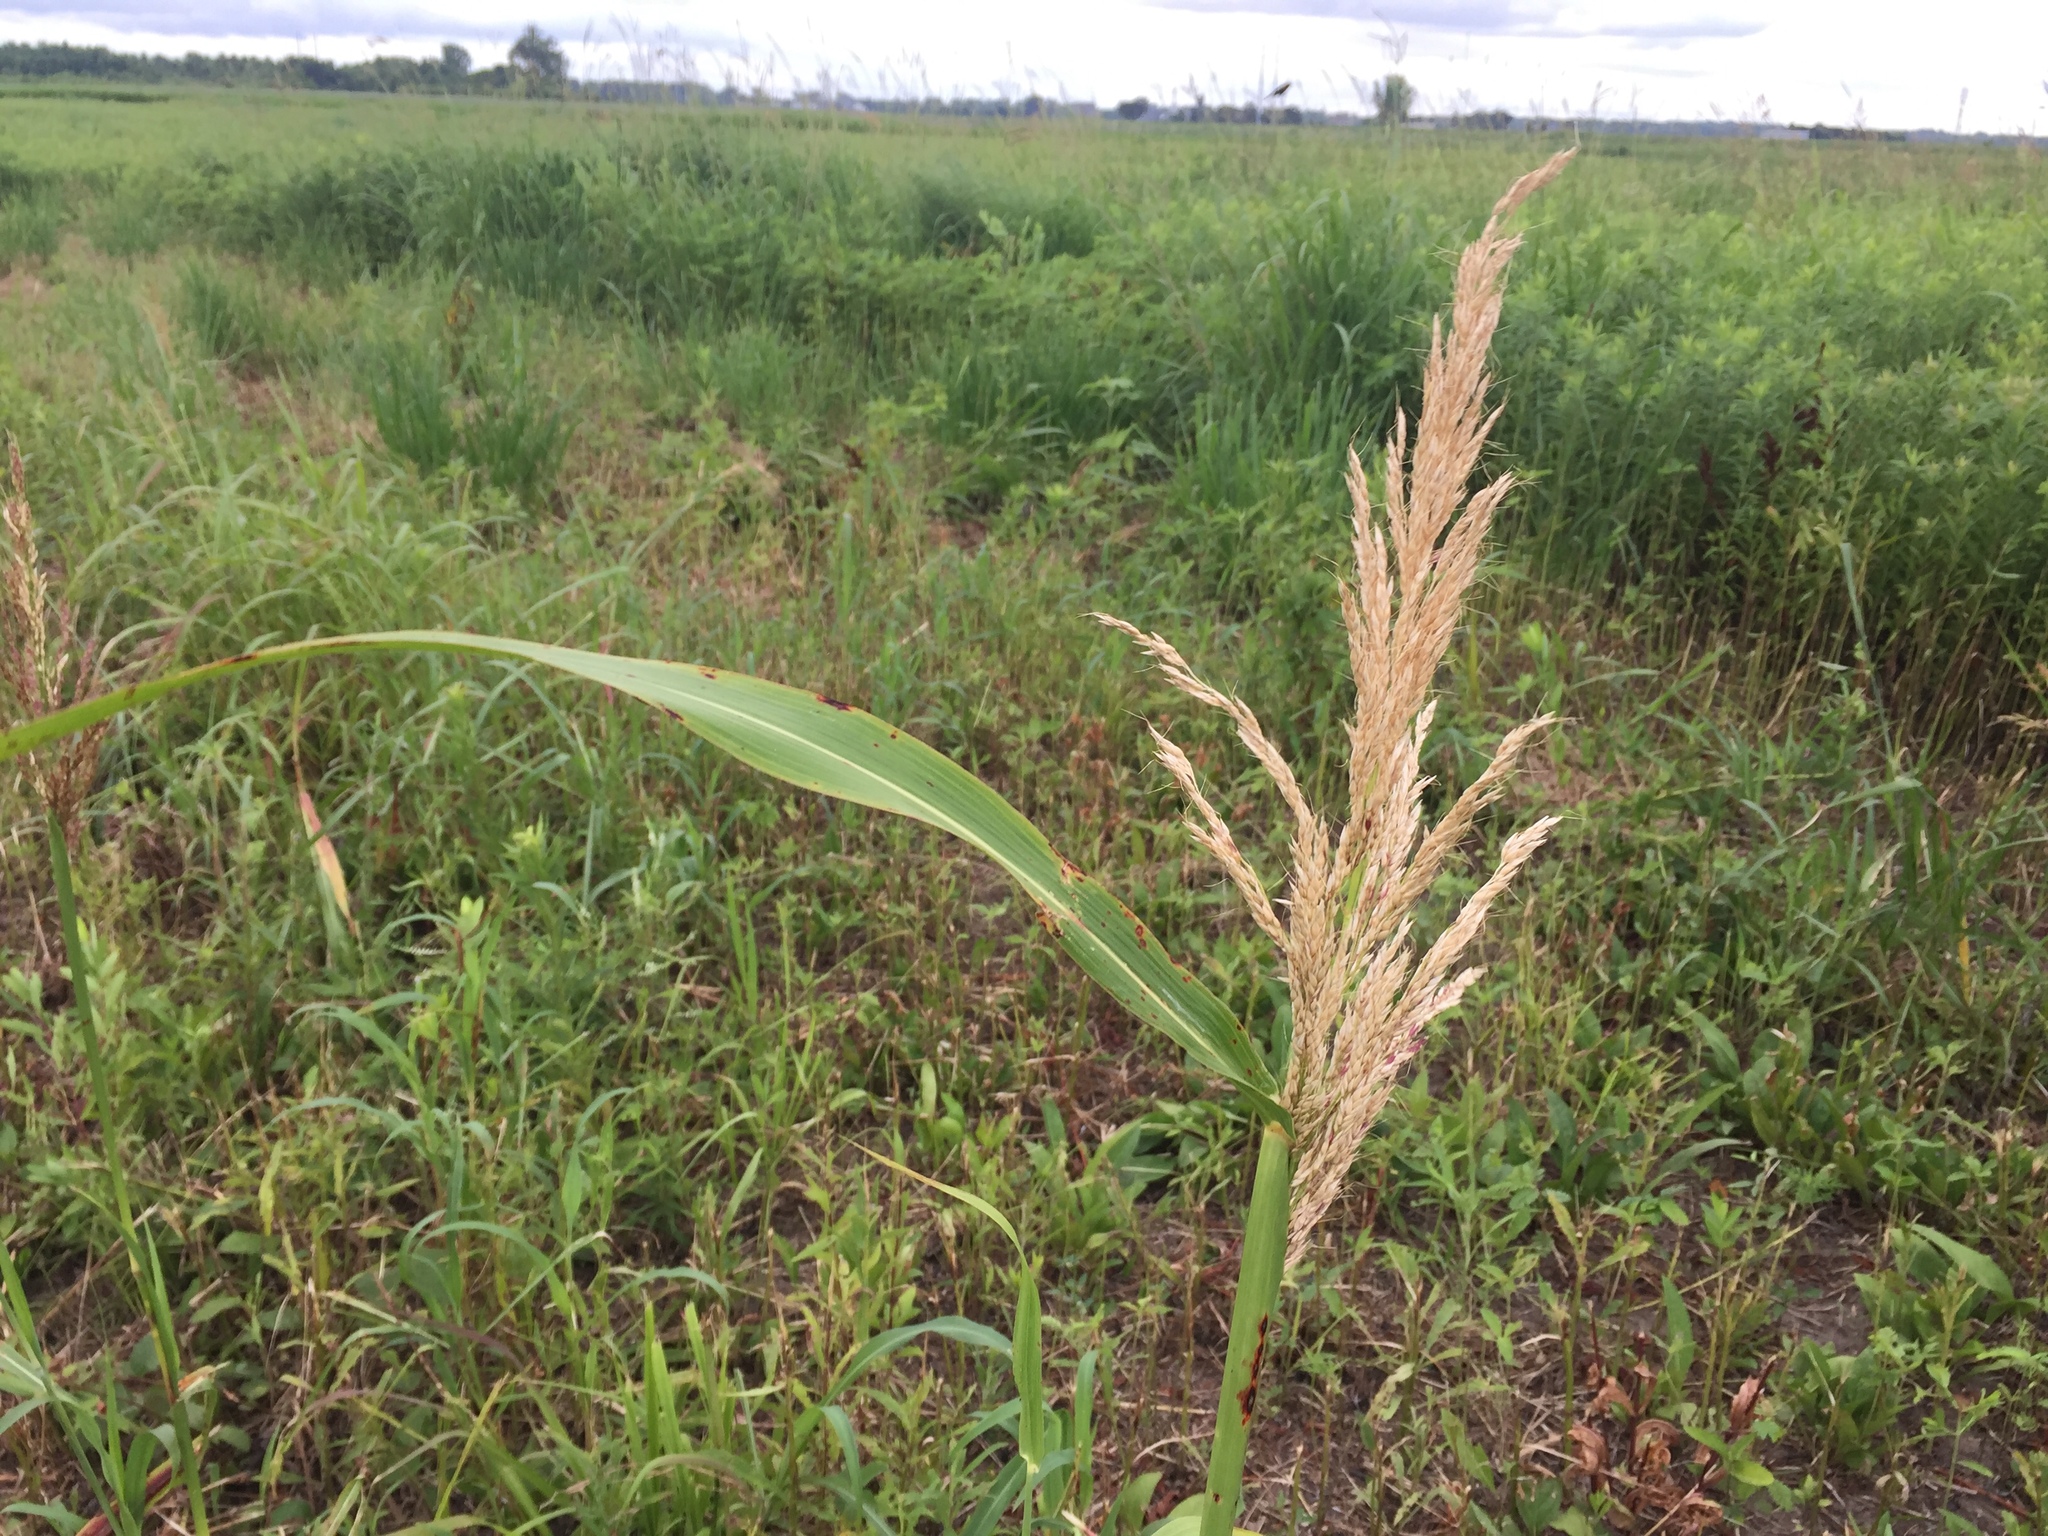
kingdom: Plantae
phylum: Tracheophyta
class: Liliopsida
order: Poales
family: Poaceae
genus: Sorghum
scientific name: Sorghum halepense
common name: Johnson-grass
